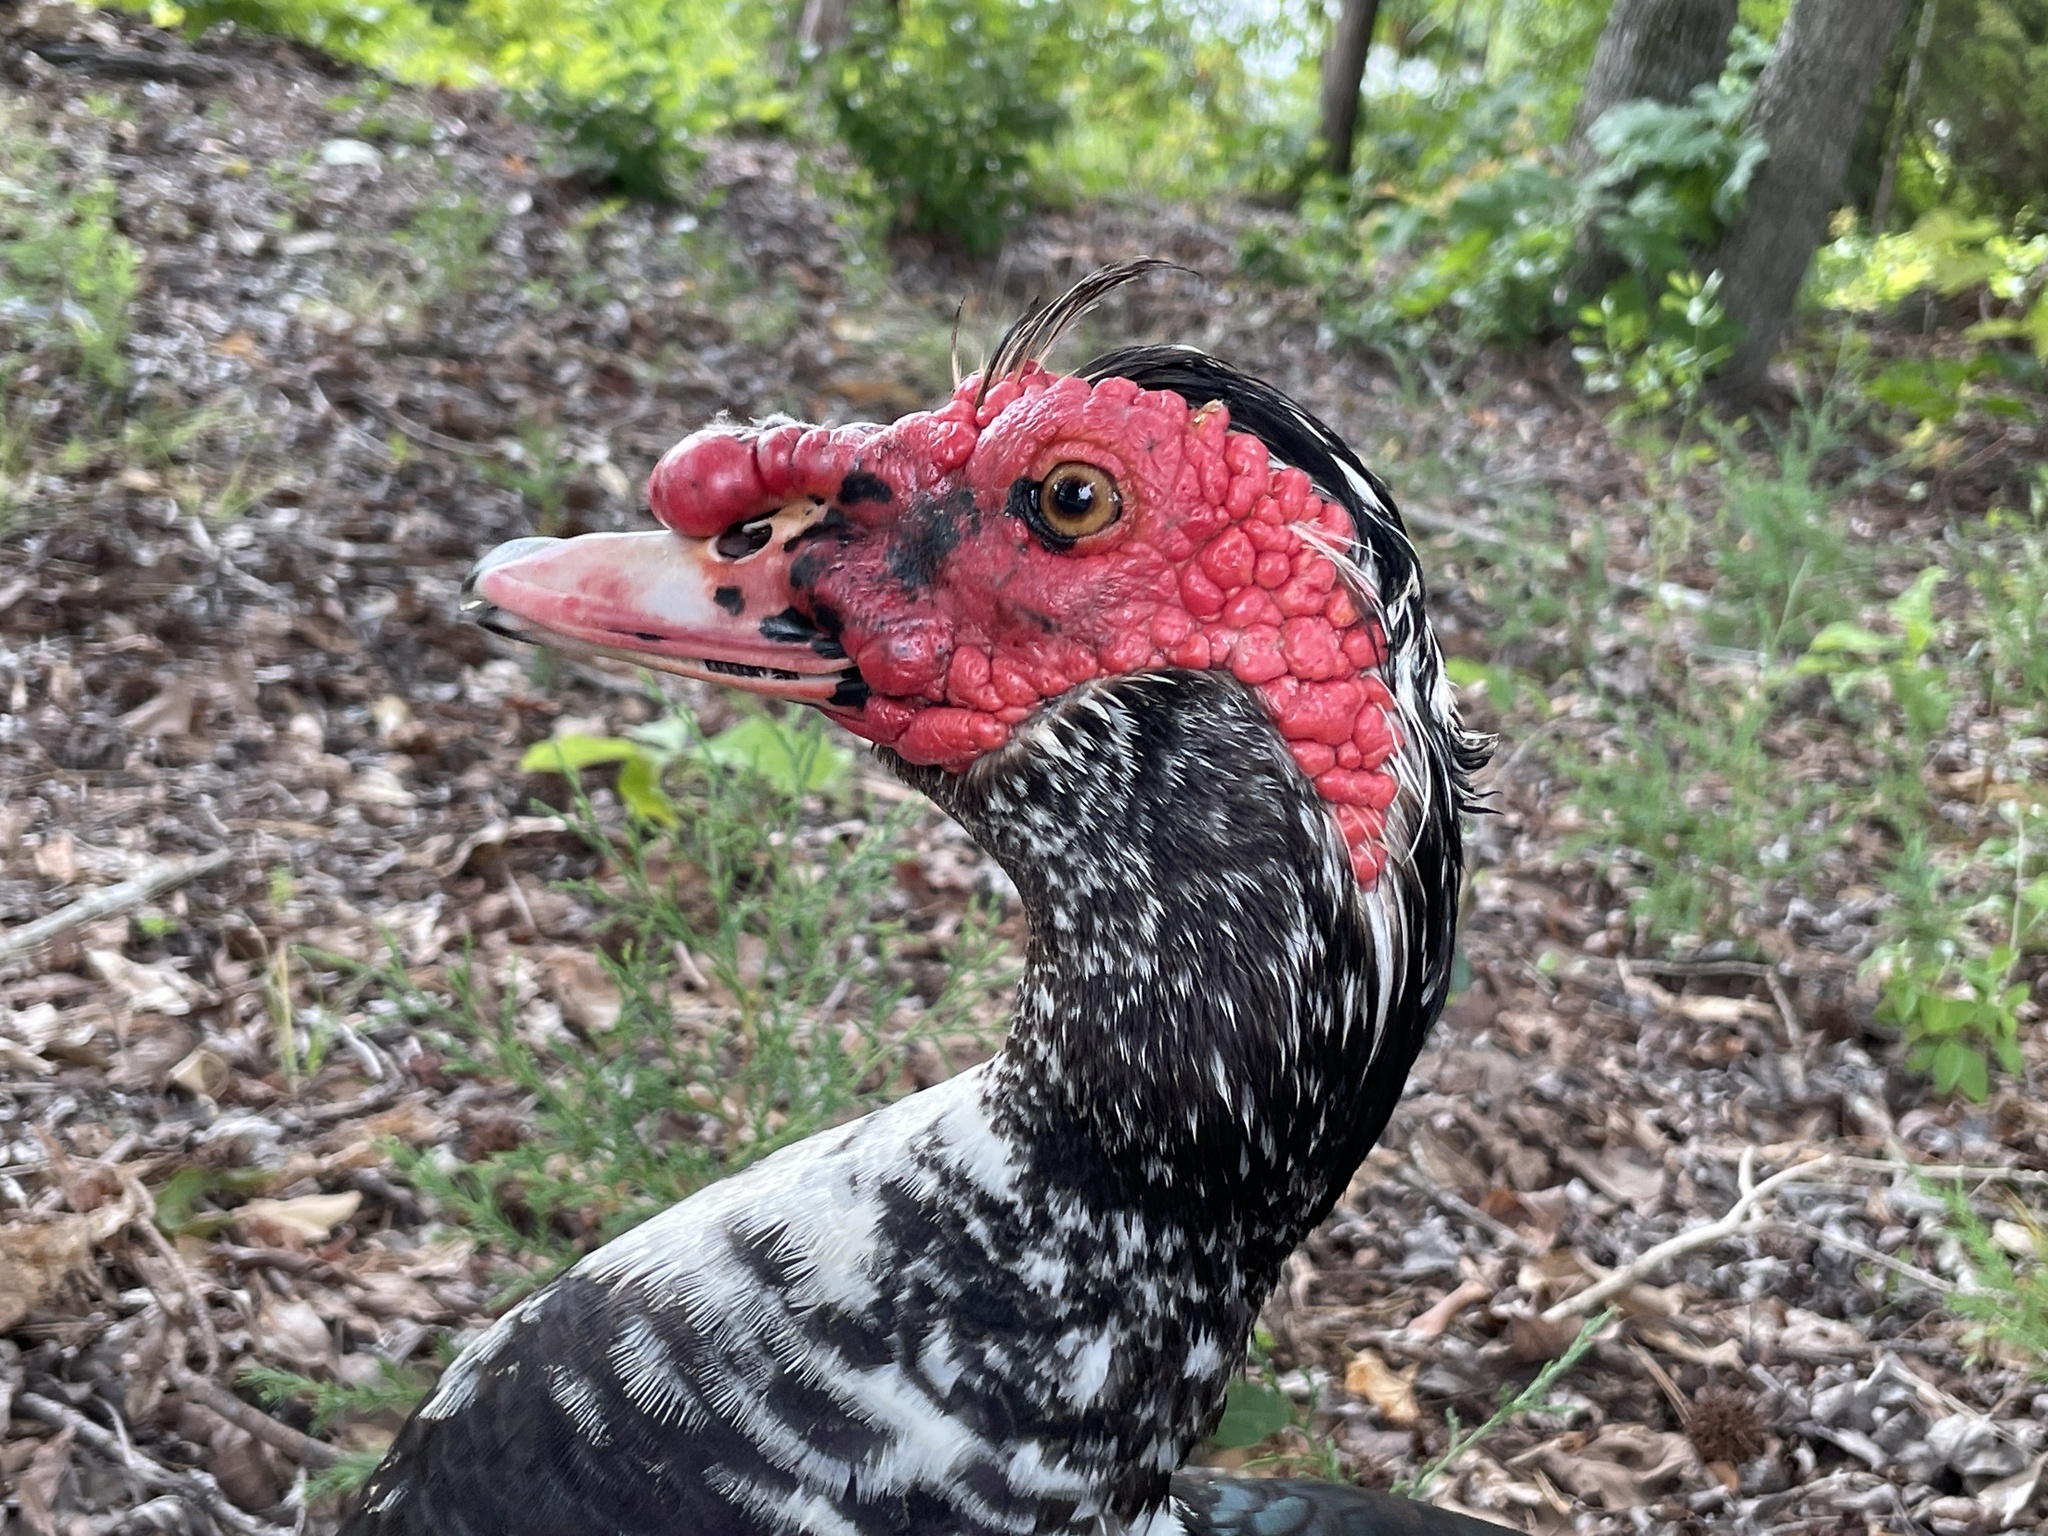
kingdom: Animalia
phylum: Chordata
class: Aves
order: Anseriformes
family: Anatidae
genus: Cairina
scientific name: Cairina moschata
